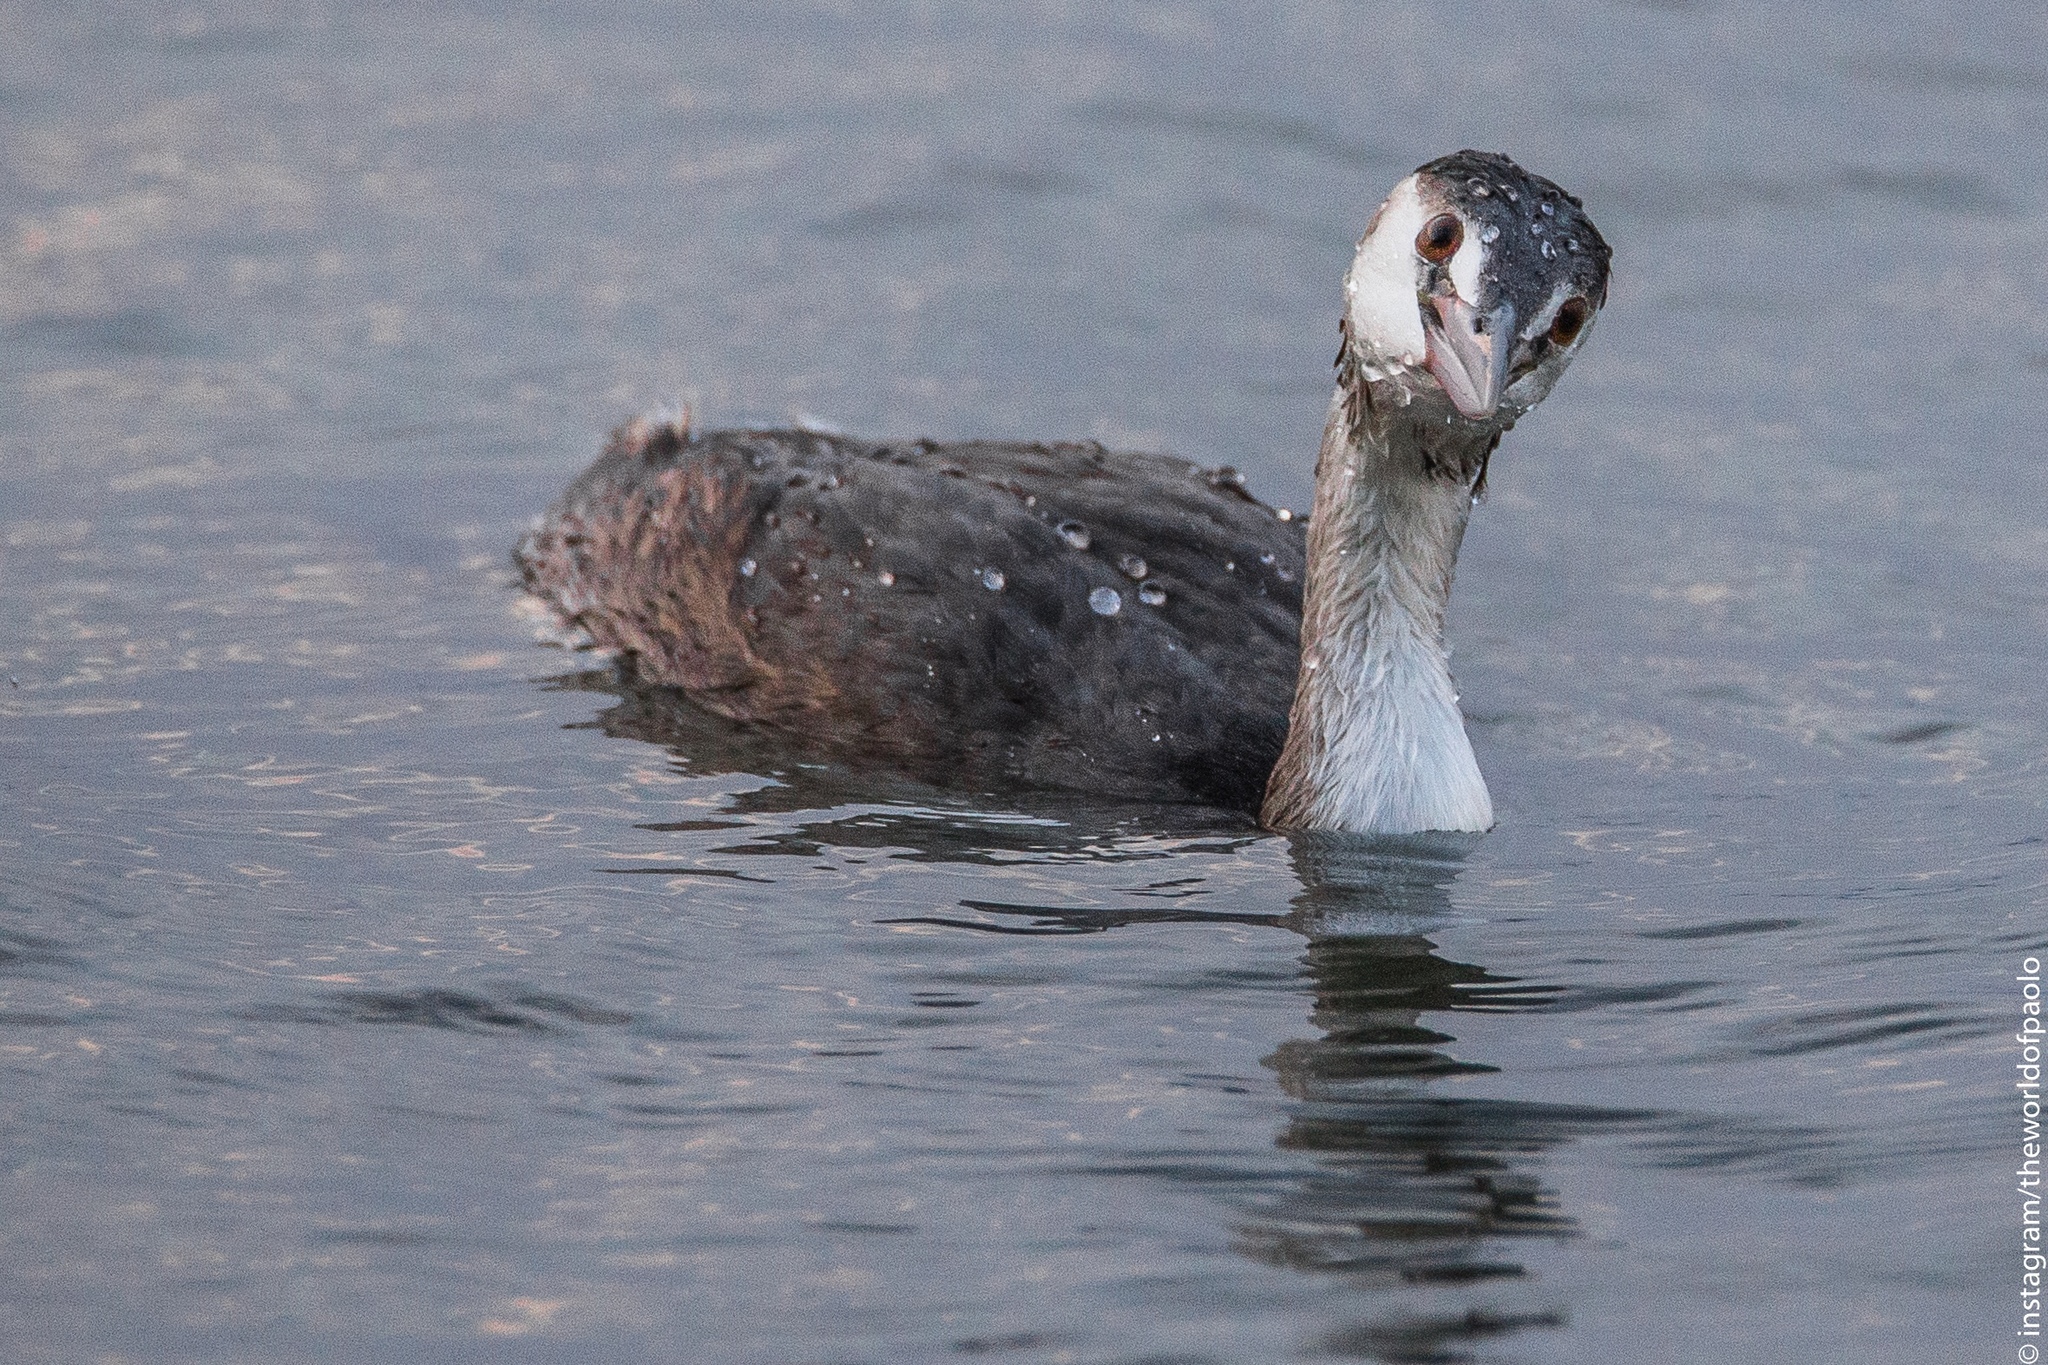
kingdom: Animalia
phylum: Chordata
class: Aves
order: Podicipediformes
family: Podicipedidae
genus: Podiceps
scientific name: Podiceps cristatus
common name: Great crested grebe
